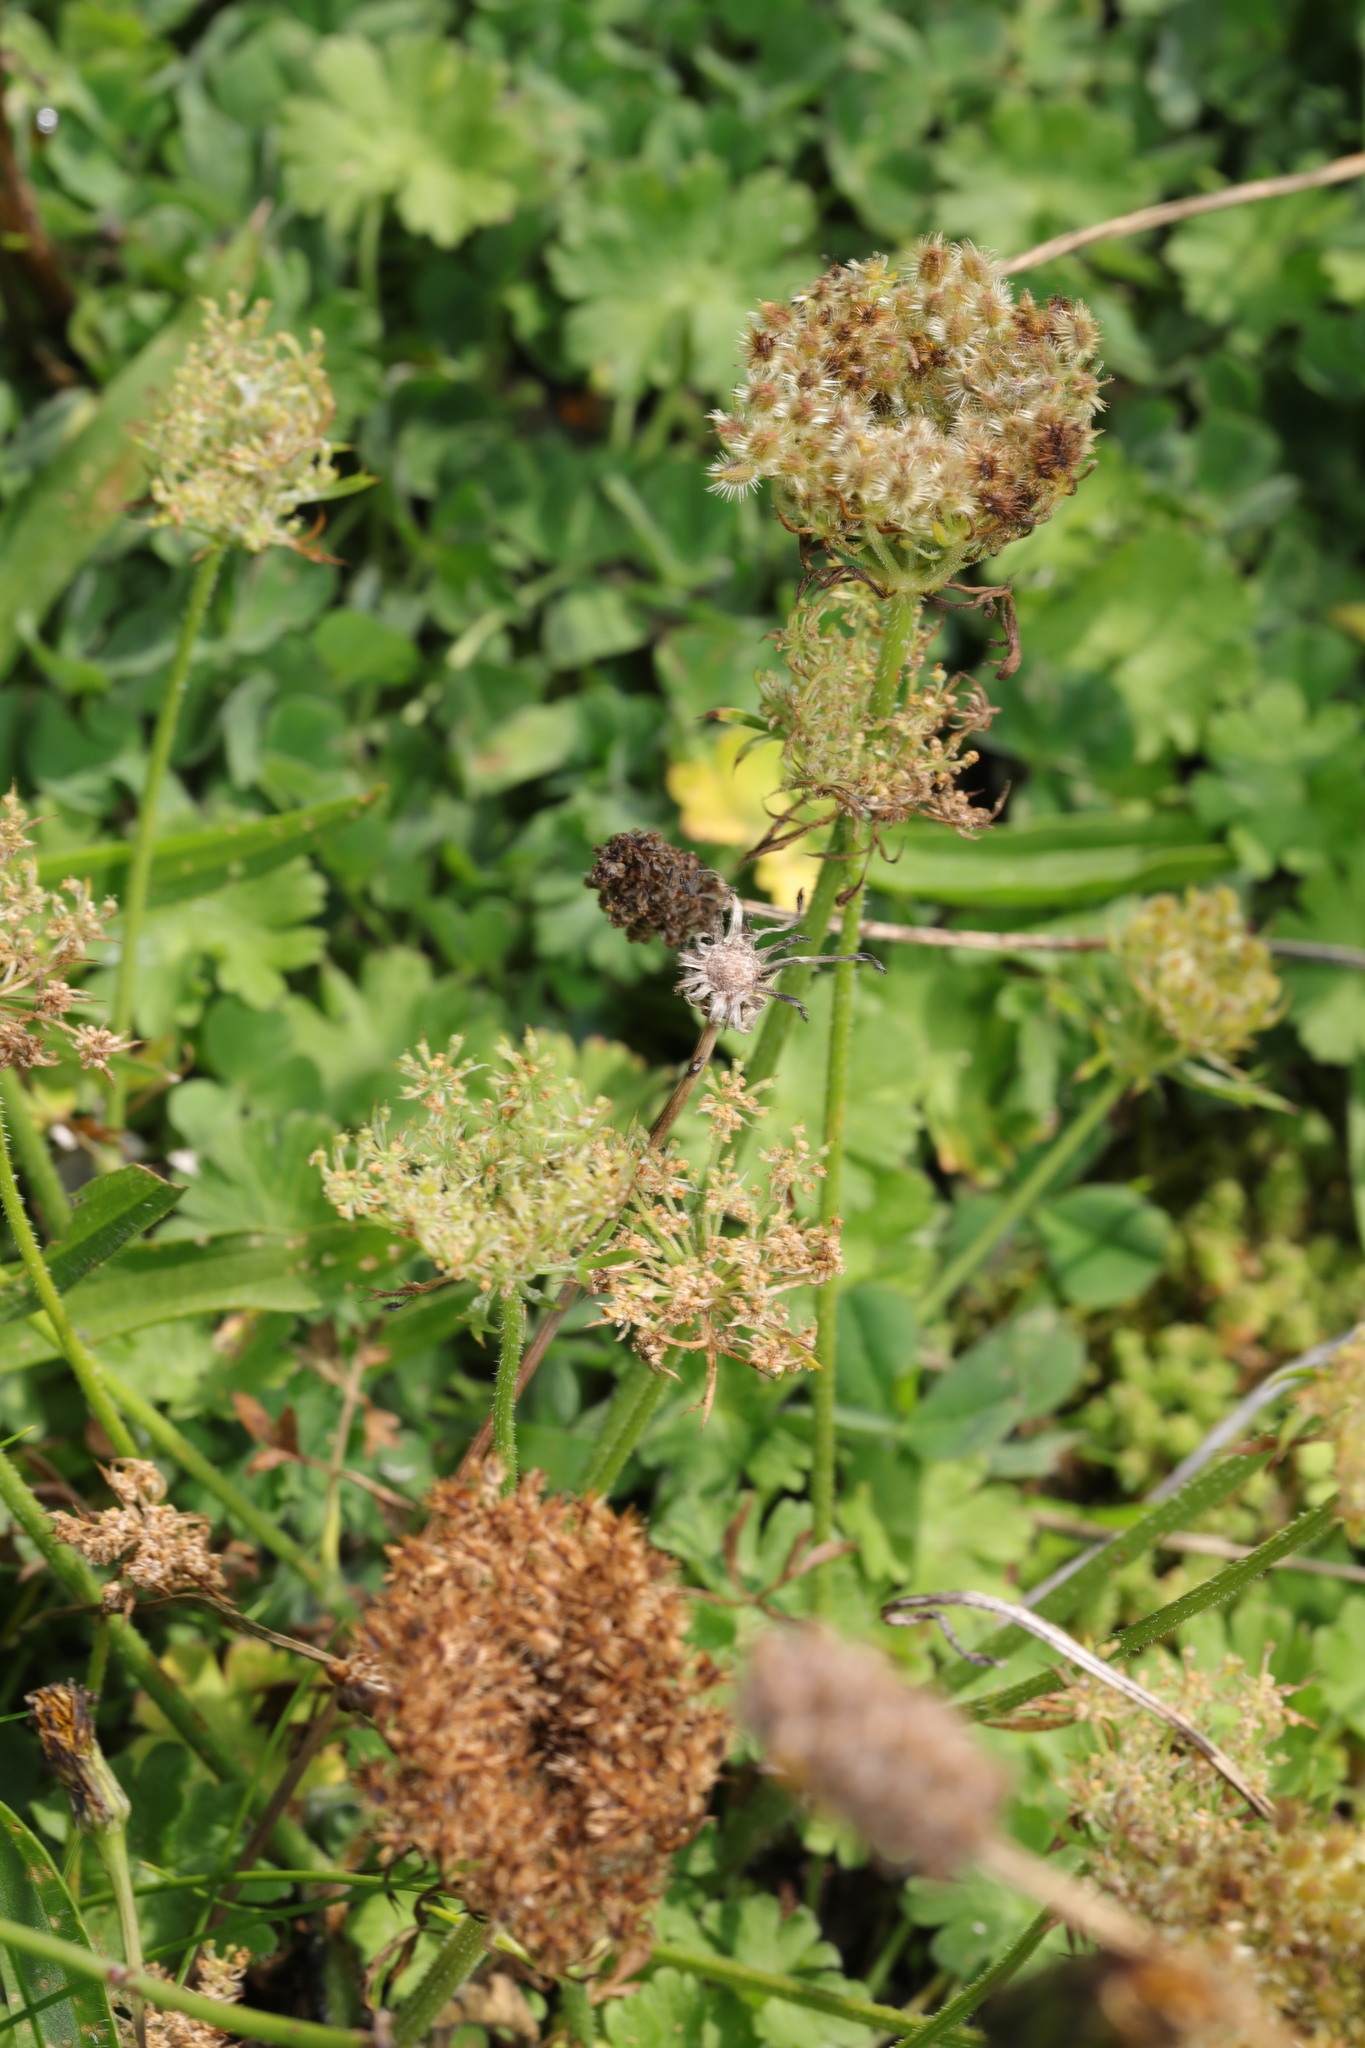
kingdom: Plantae
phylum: Tracheophyta
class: Magnoliopsida
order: Apiales
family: Apiaceae
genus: Daucus
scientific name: Daucus carota
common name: Wild carrot
